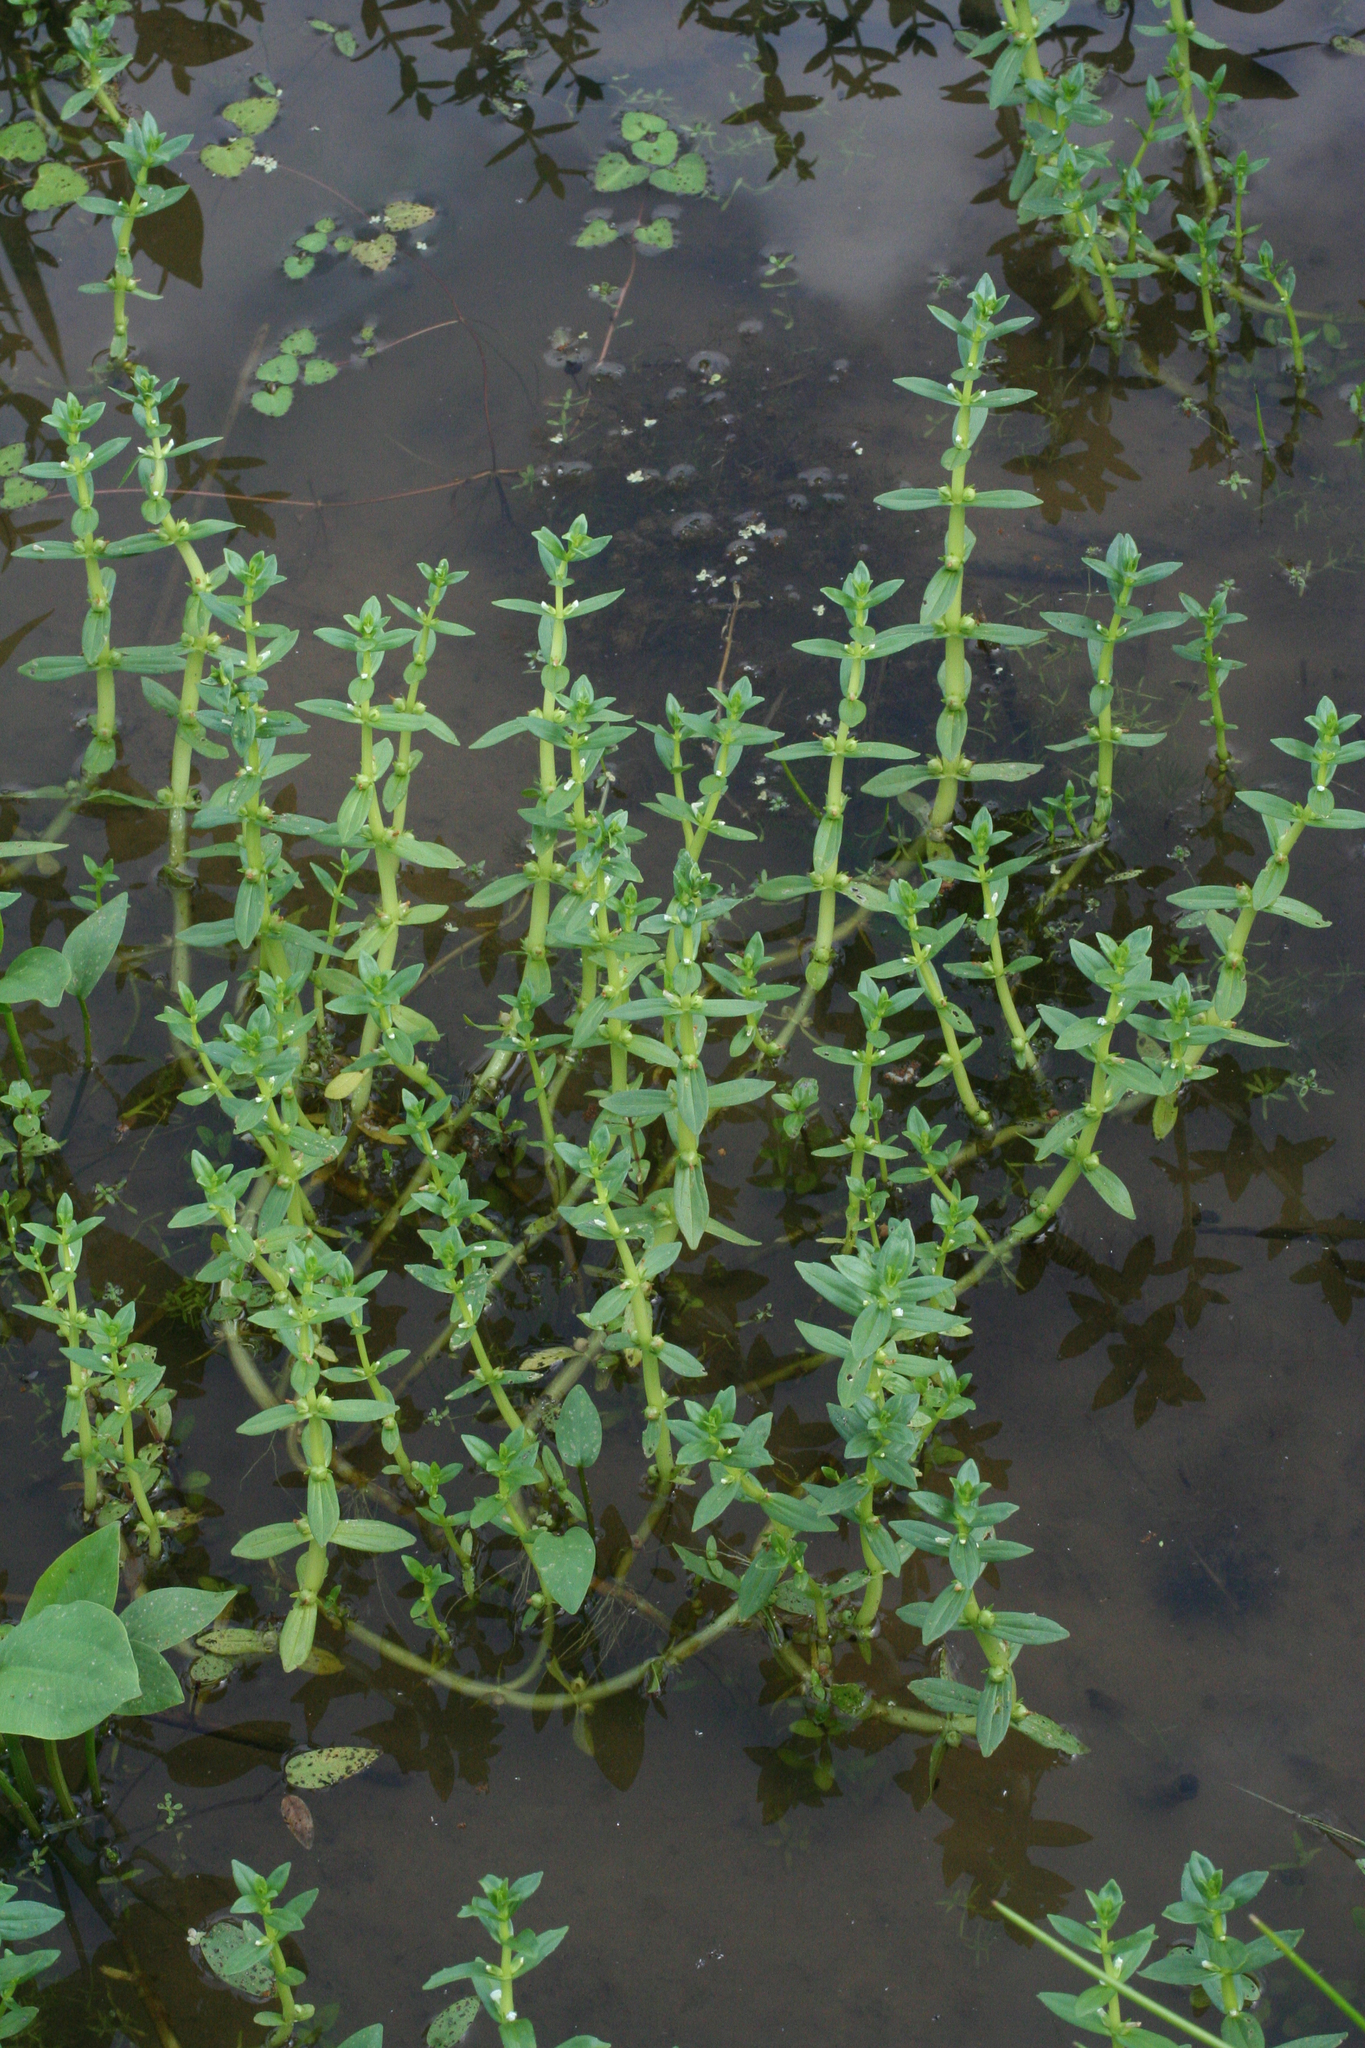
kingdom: Plantae
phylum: Tracheophyta
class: Magnoliopsida
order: Lamiales
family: Plantaginaceae
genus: Gratiola
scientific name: Gratiola japonica
